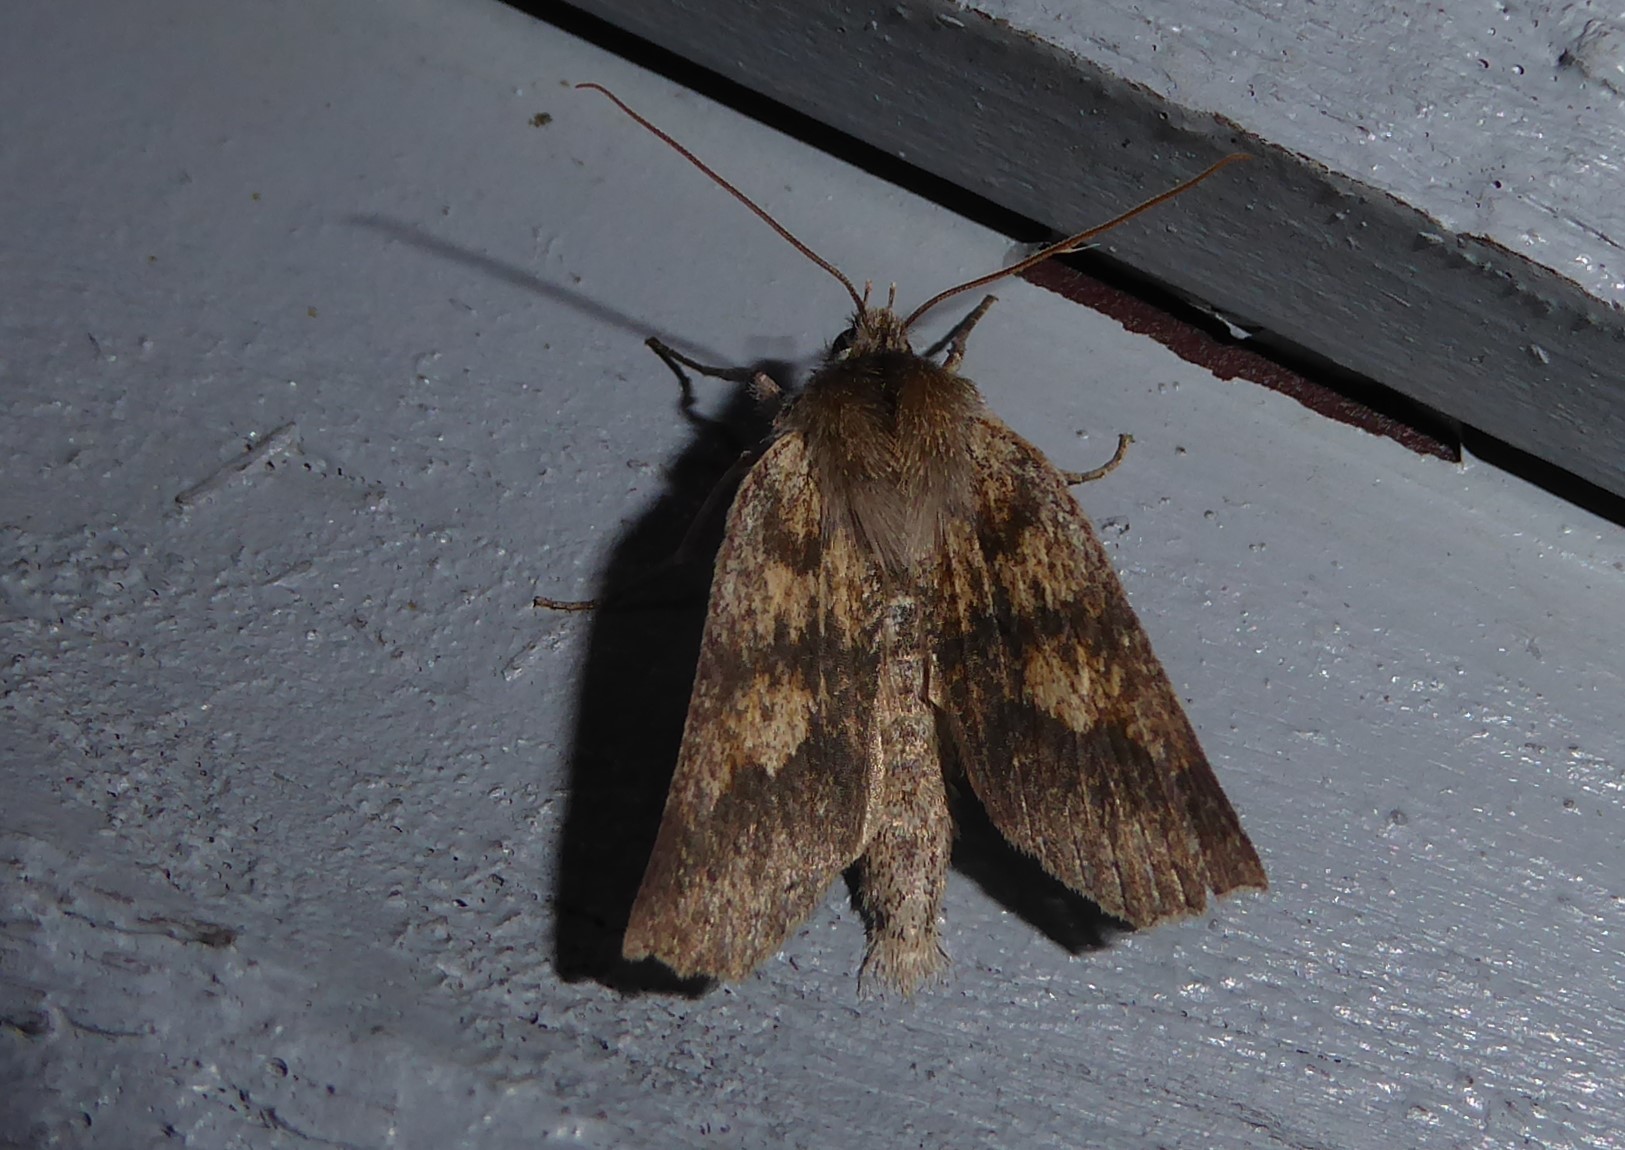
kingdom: Animalia
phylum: Arthropoda
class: Insecta
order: Lepidoptera
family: Geometridae
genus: Declana
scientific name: Declana leptomera
